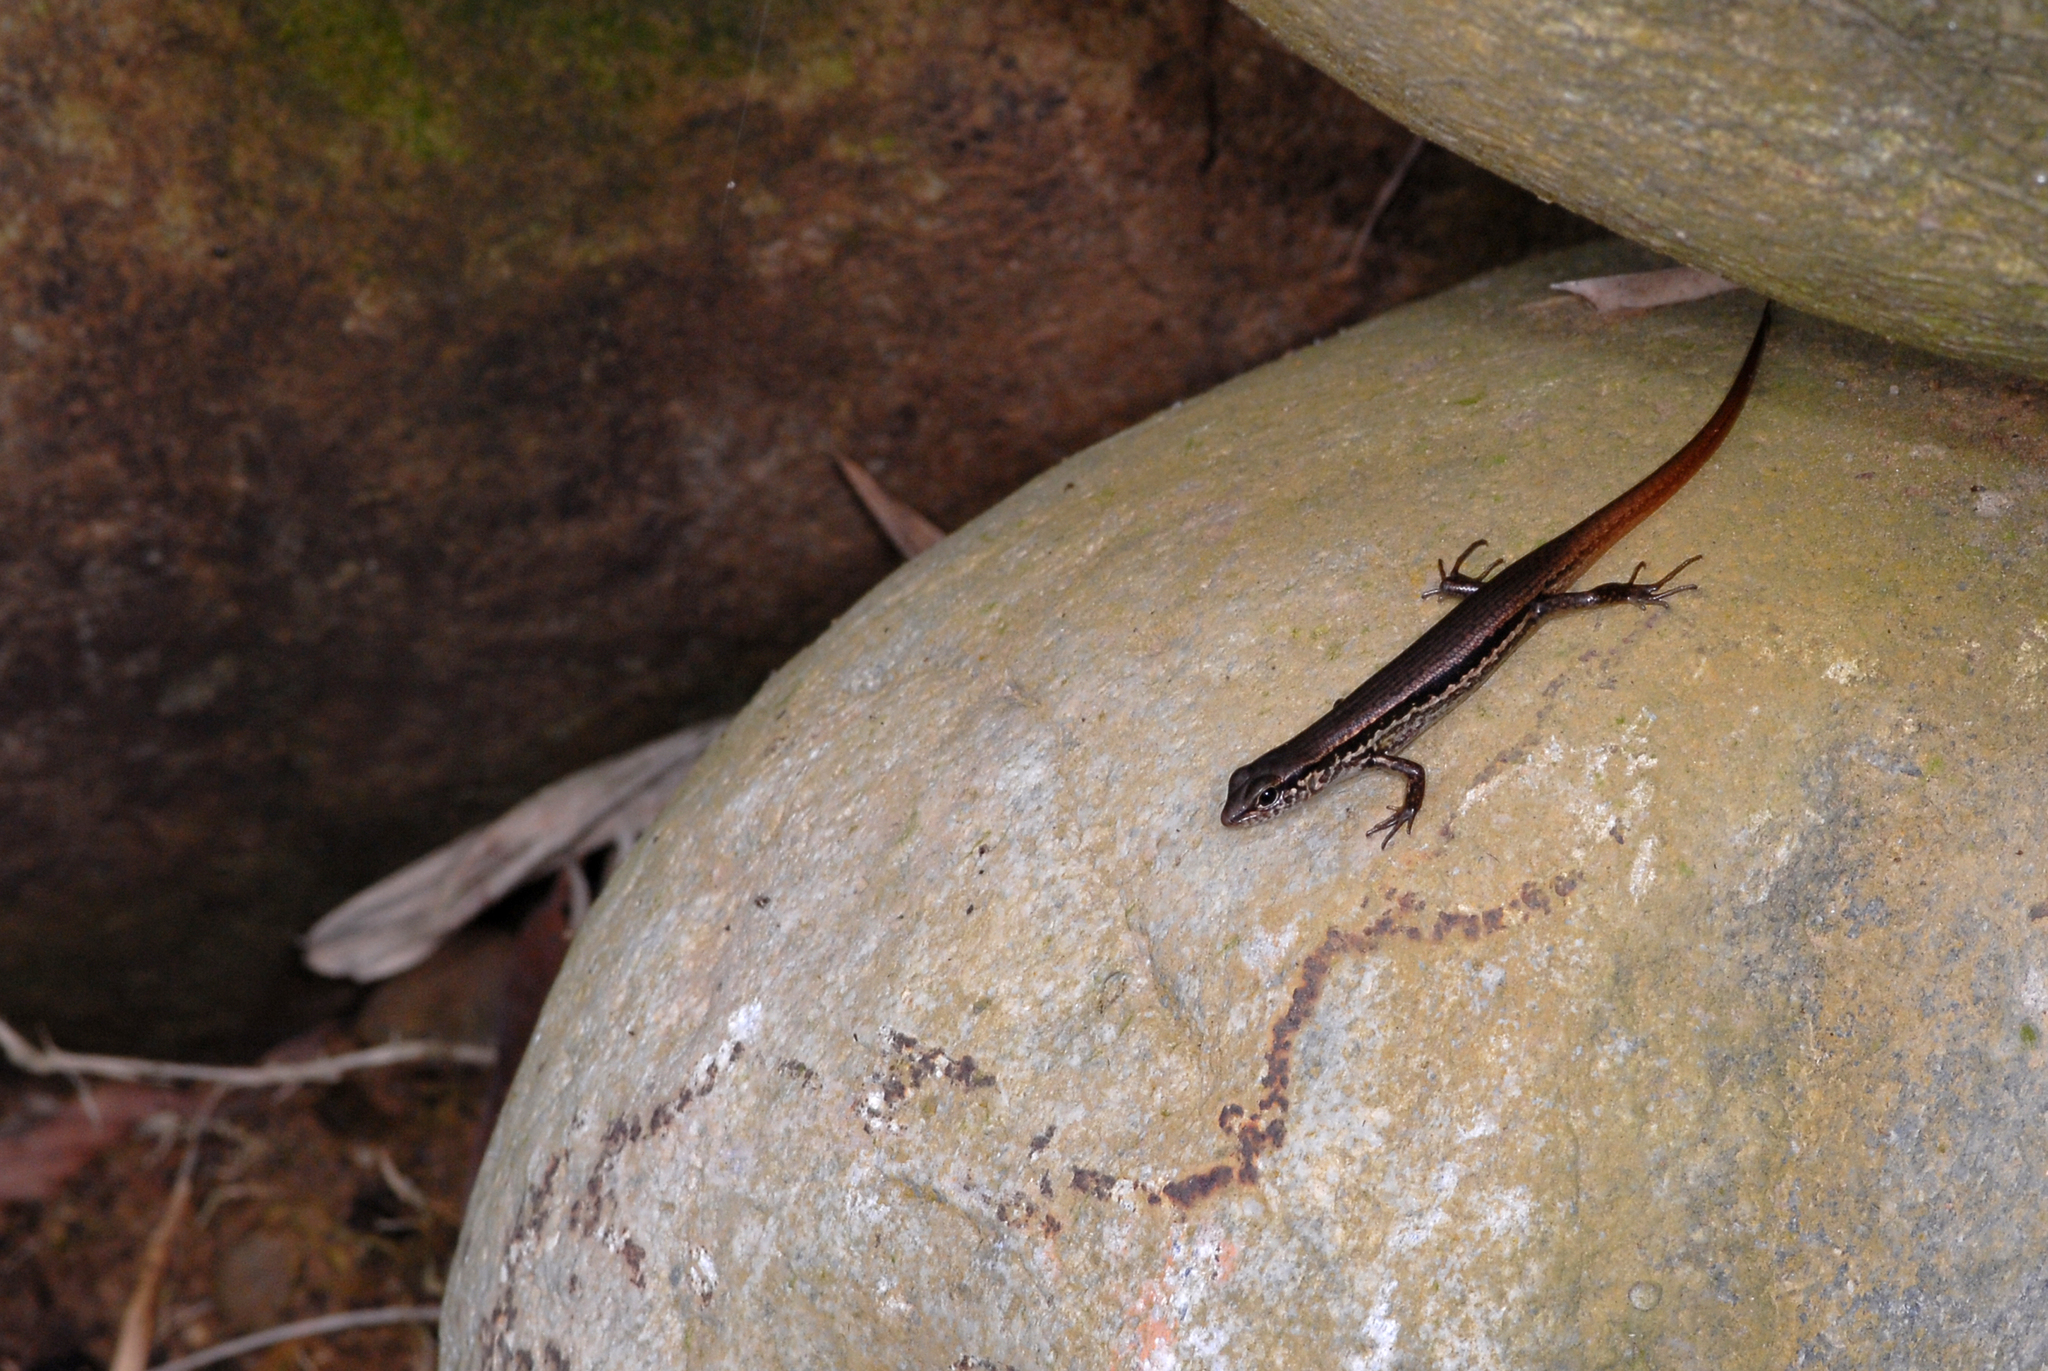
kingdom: Animalia
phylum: Chordata
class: Squamata
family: Scincidae
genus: Sphenomorphus
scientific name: Sphenomorphus indicus
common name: Himalayan forest skink
